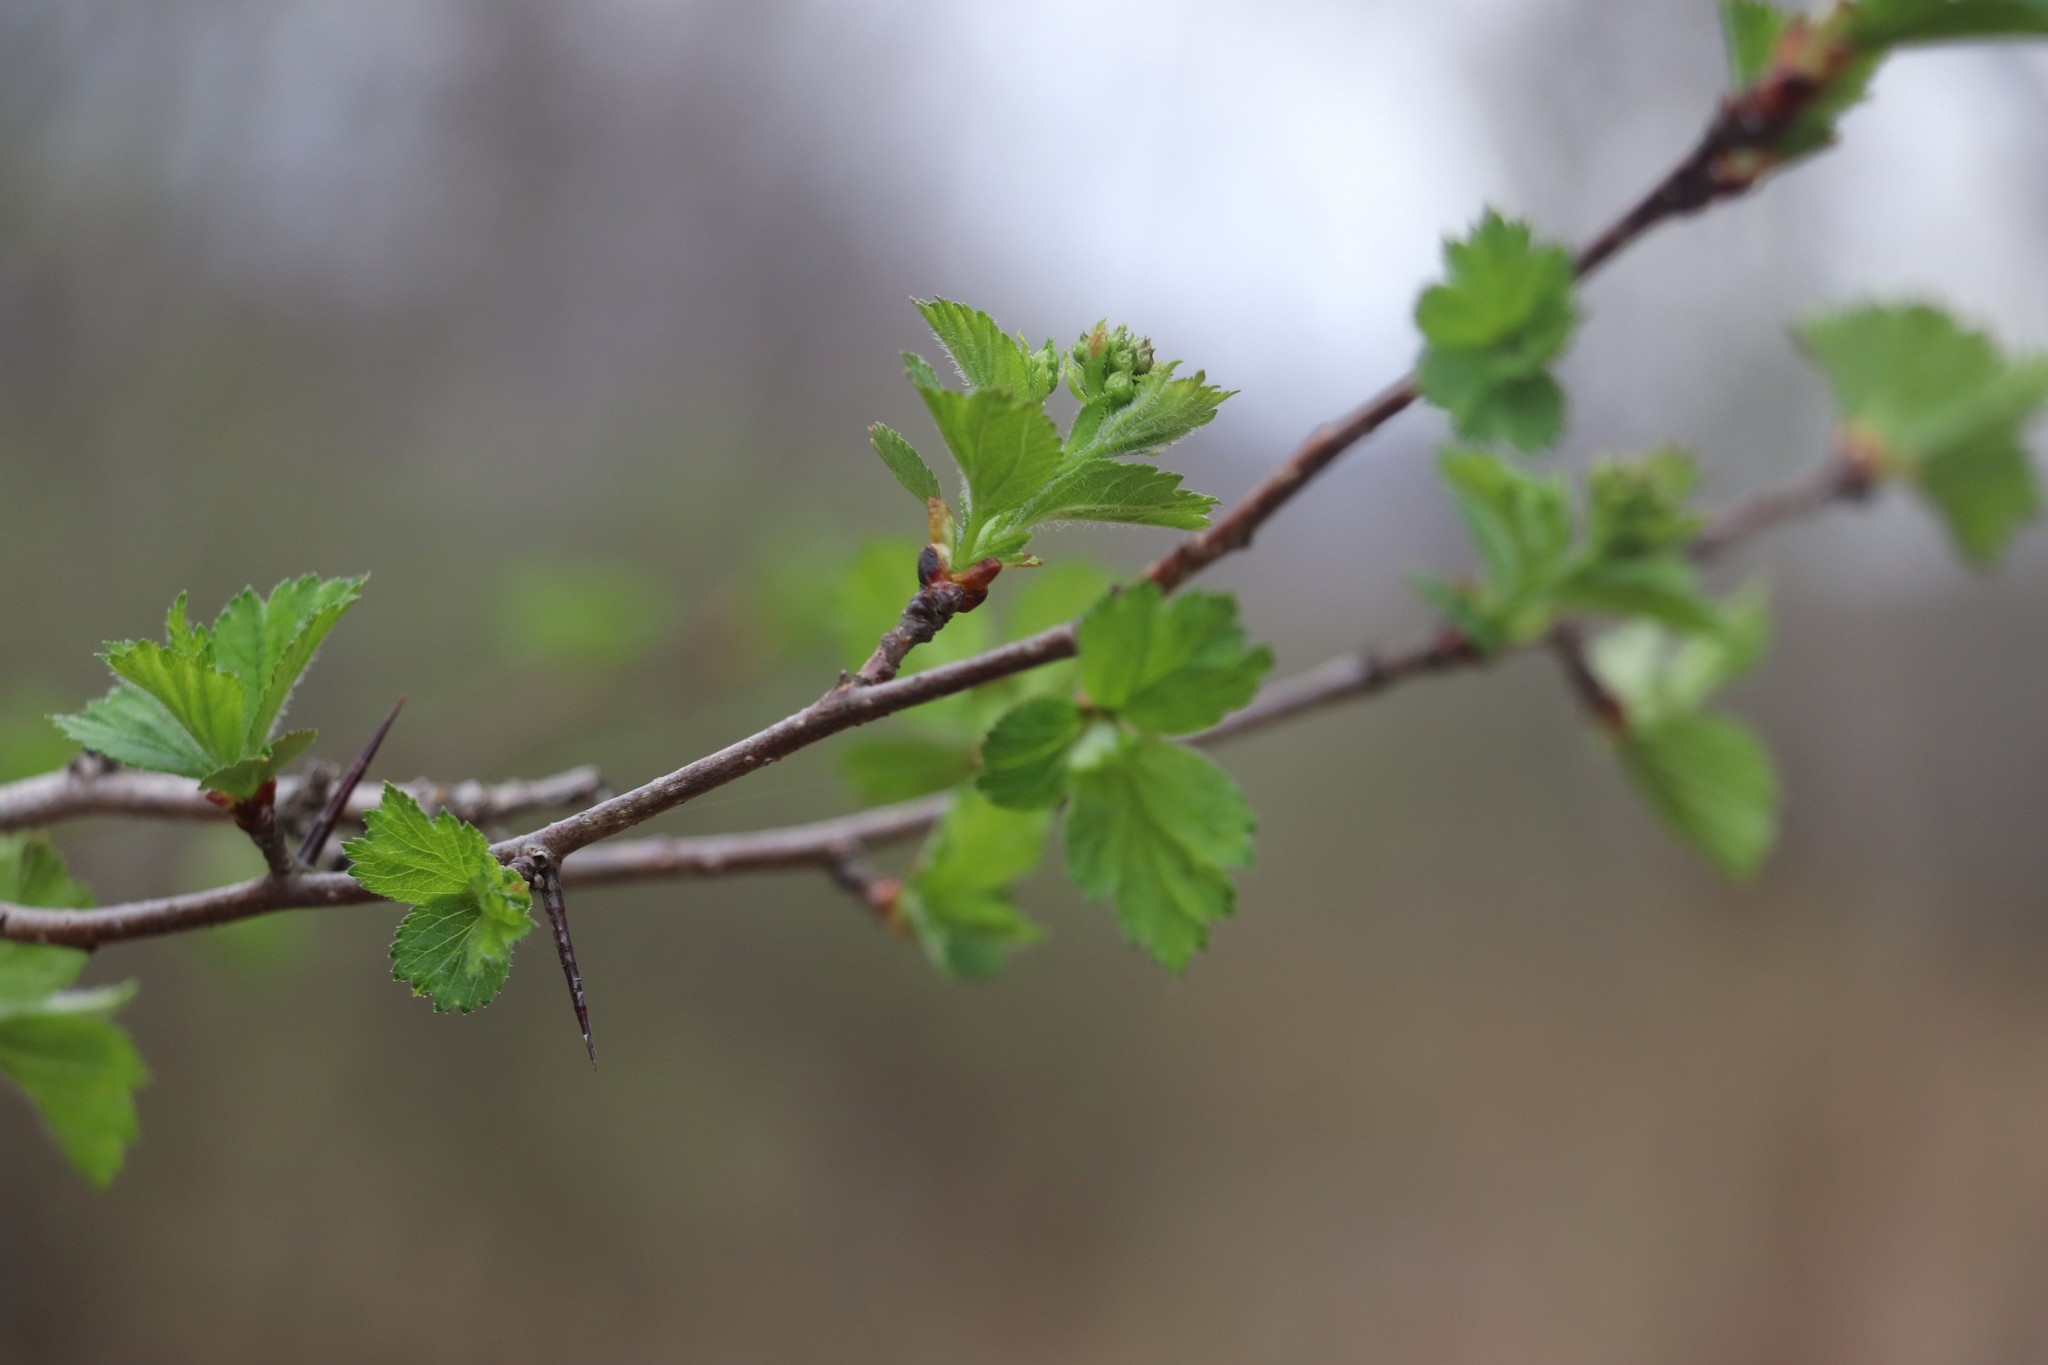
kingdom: Plantae
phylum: Tracheophyta
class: Magnoliopsida
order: Rosales
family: Rosaceae
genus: Crataegus
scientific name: Crataegus sanguinea
